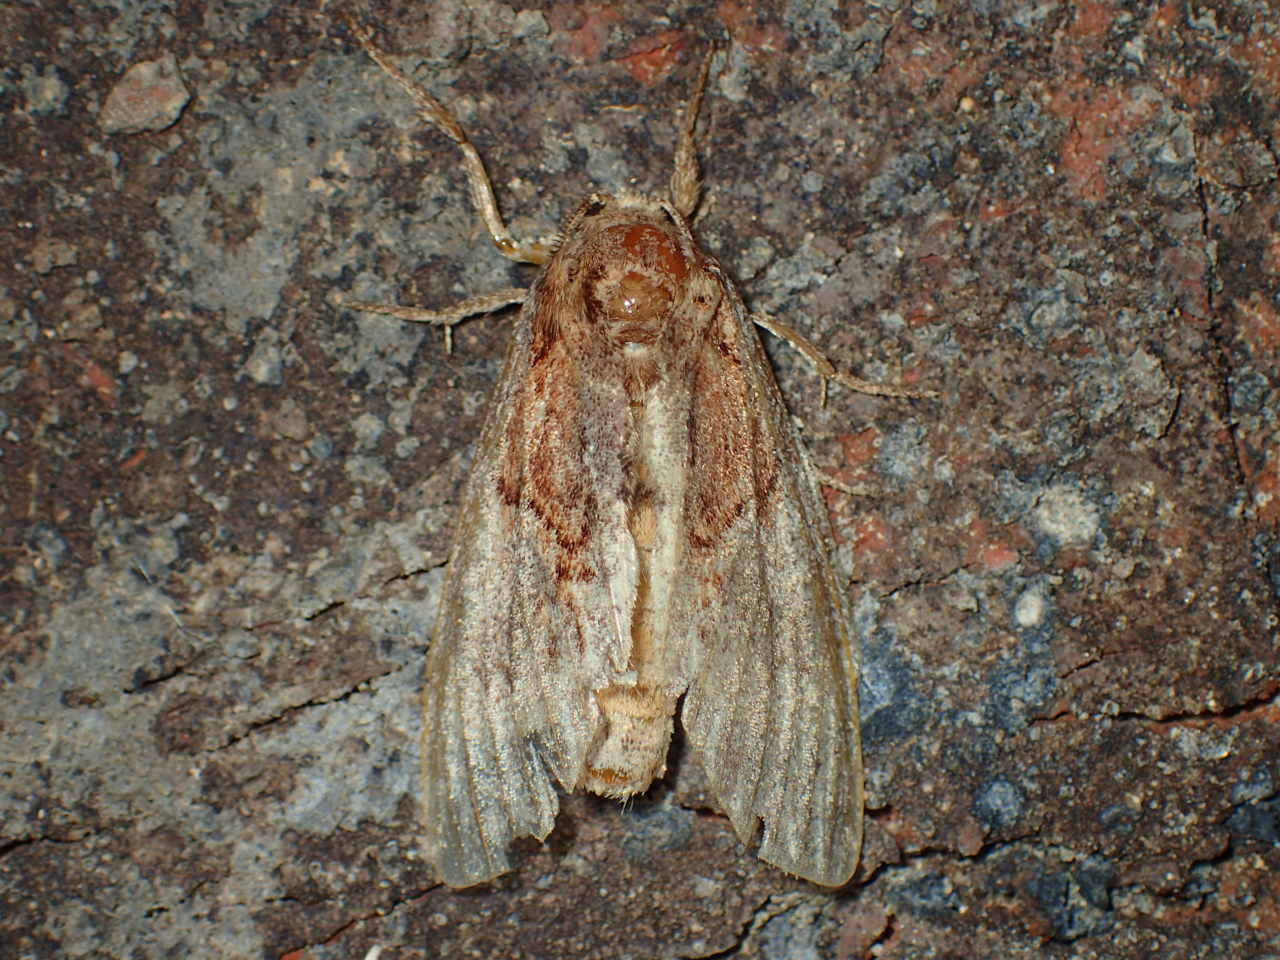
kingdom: Animalia
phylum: Arthropoda
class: Insecta
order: Lepidoptera
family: Notodontidae
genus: Peridea
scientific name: Peridea basitriens
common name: Oval-based prominent
